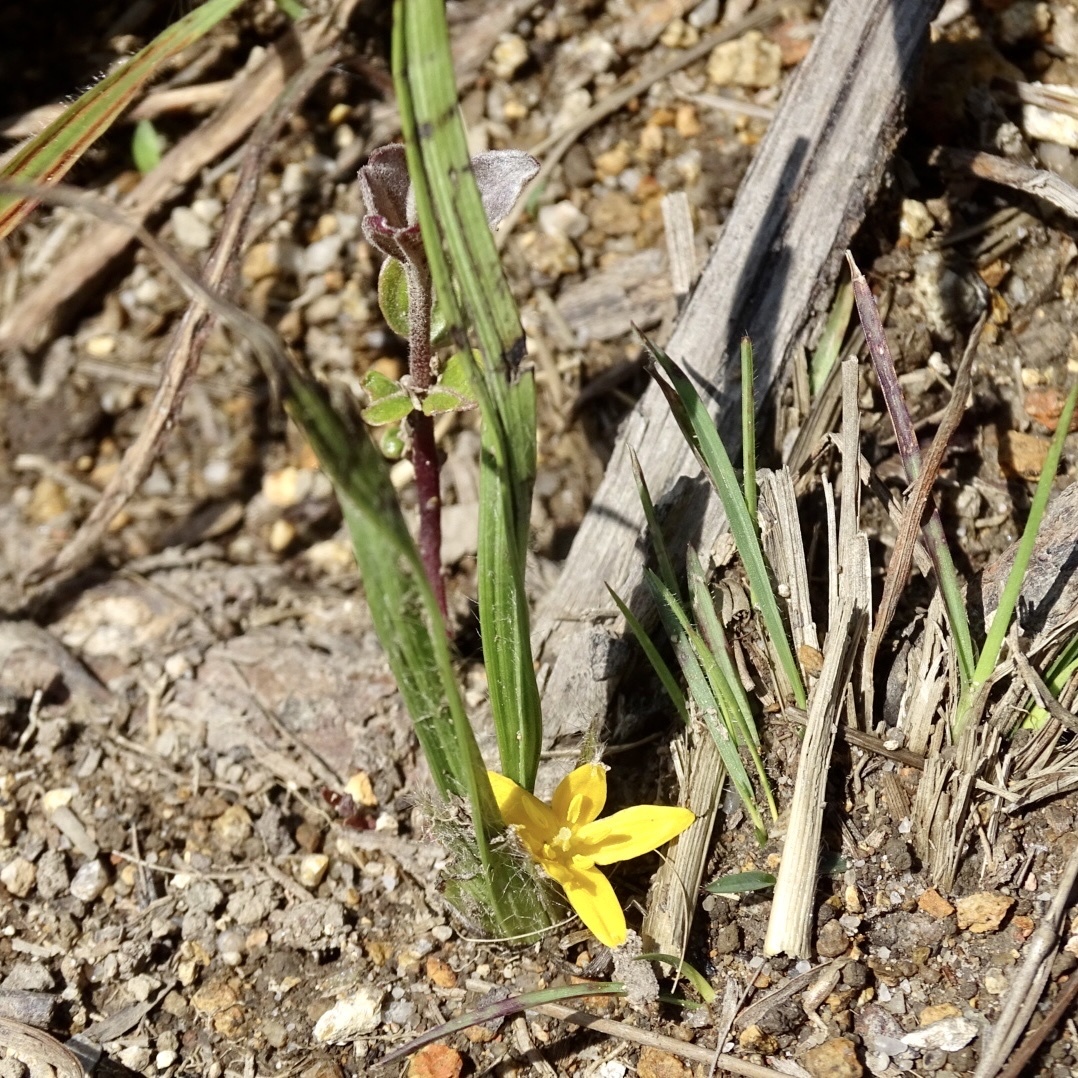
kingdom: Plantae
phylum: Tracheophyta
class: Liliopsida
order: Asparagales
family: Hypoxidaceae
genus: Curculigo
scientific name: Curculigo orchioides
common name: Golden eye-grass
